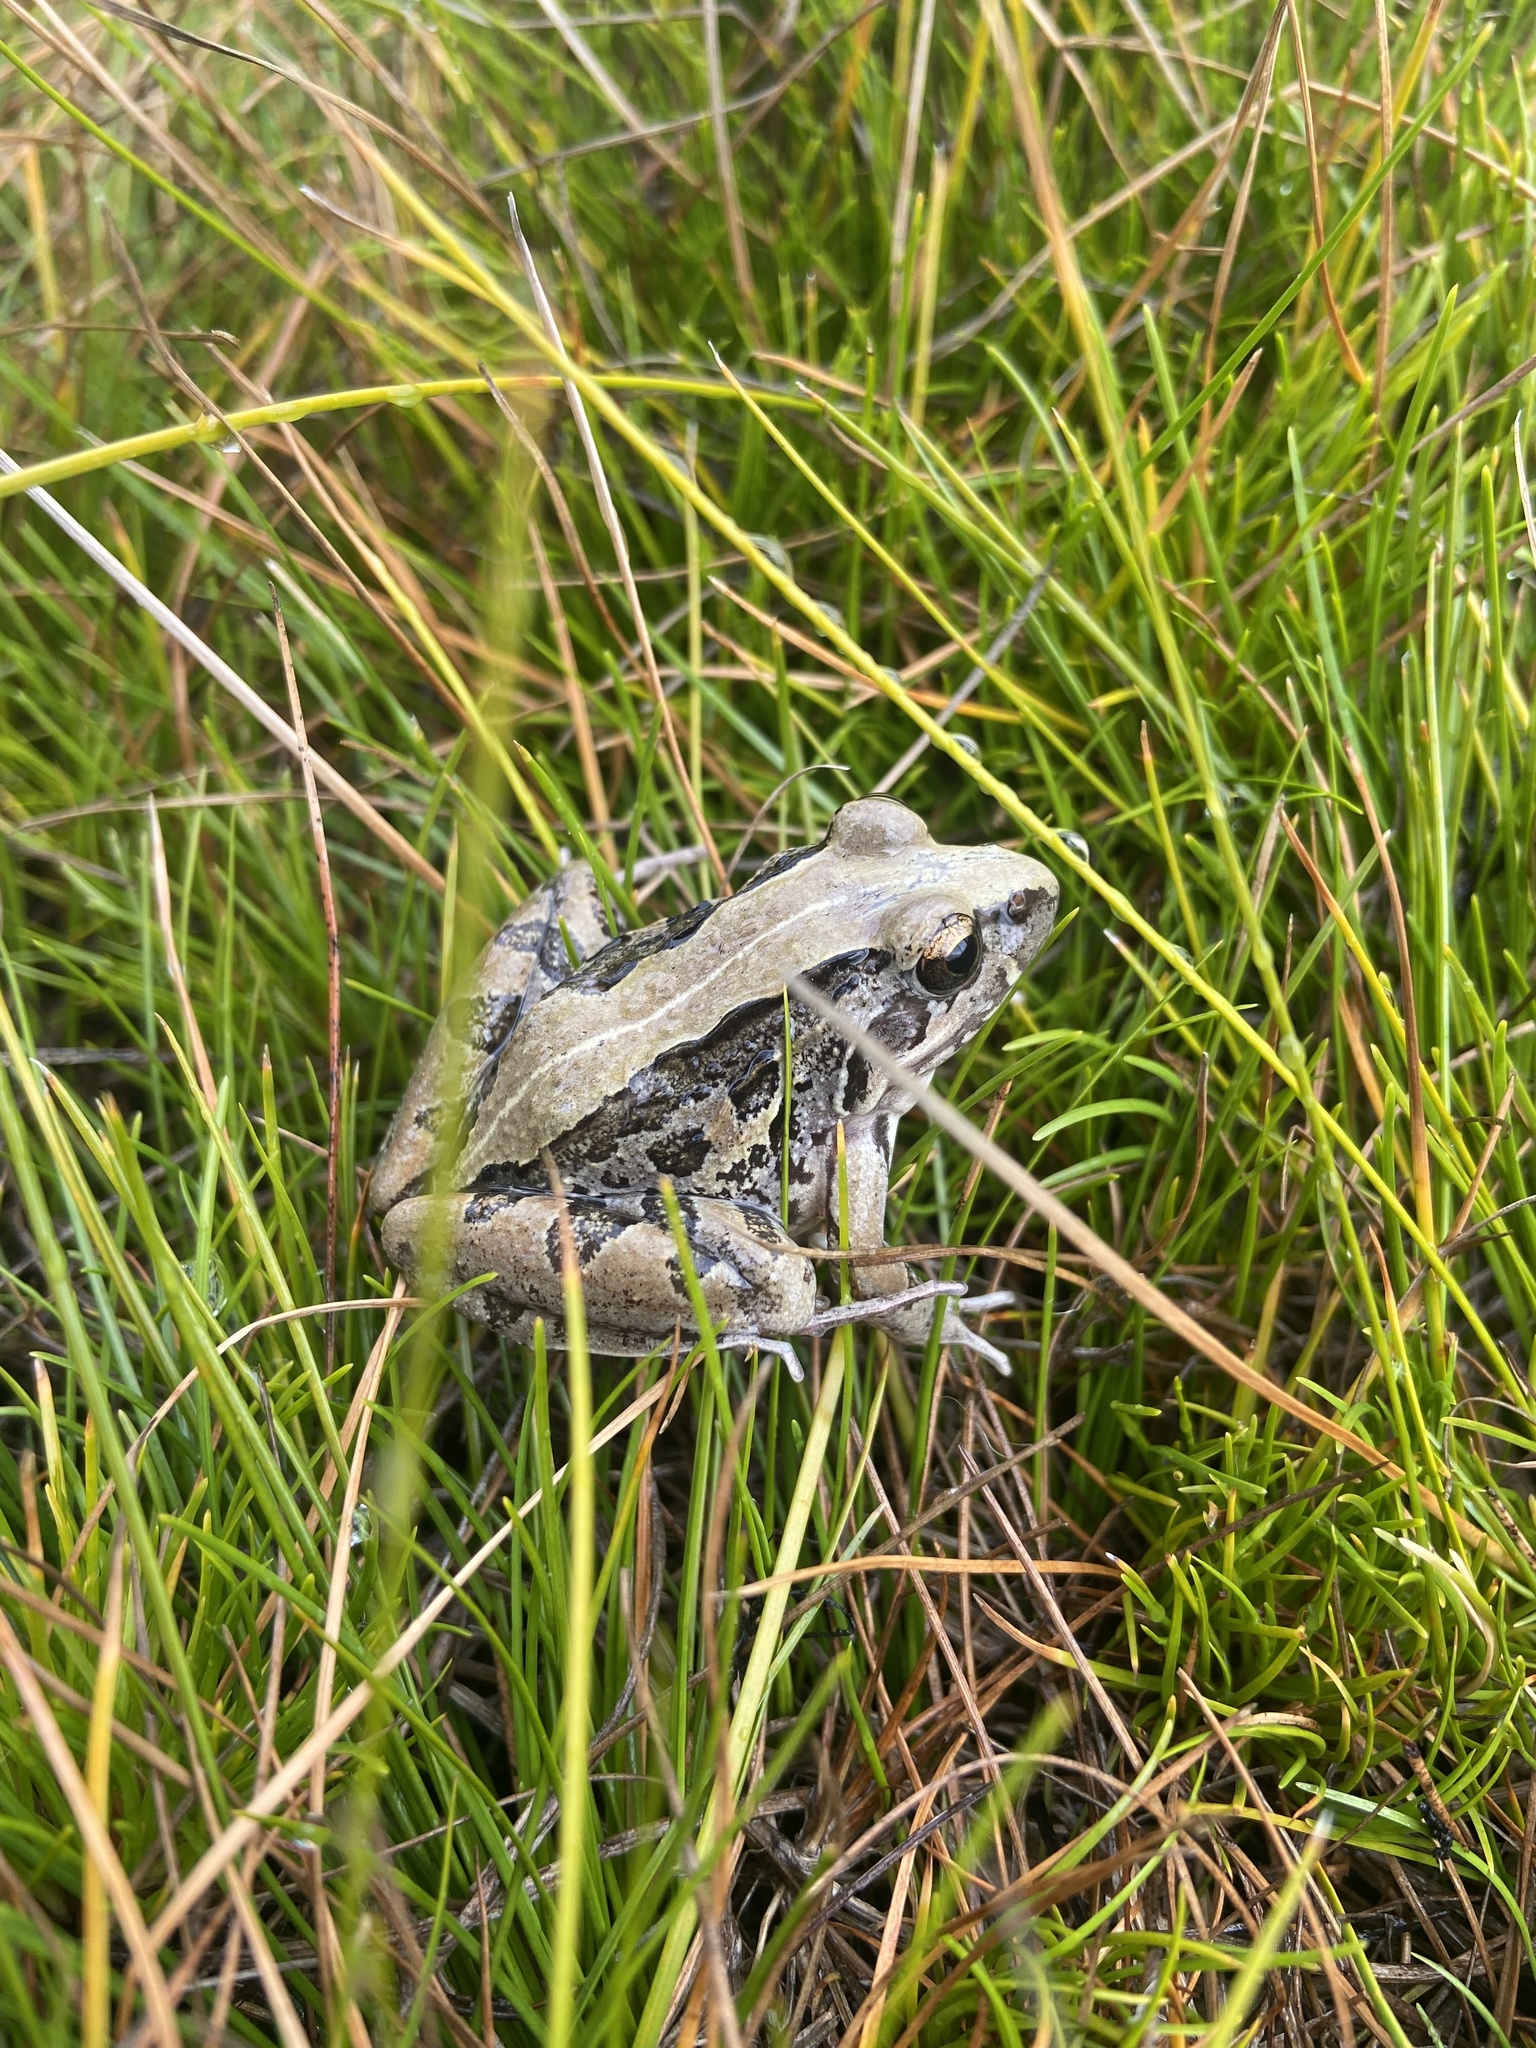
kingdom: Animalia
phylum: Chordata
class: Amphibia
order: Anura
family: Pyxicephalidae
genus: Strongylopus
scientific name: Strongylopus grayii
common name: Gray's stream frog
